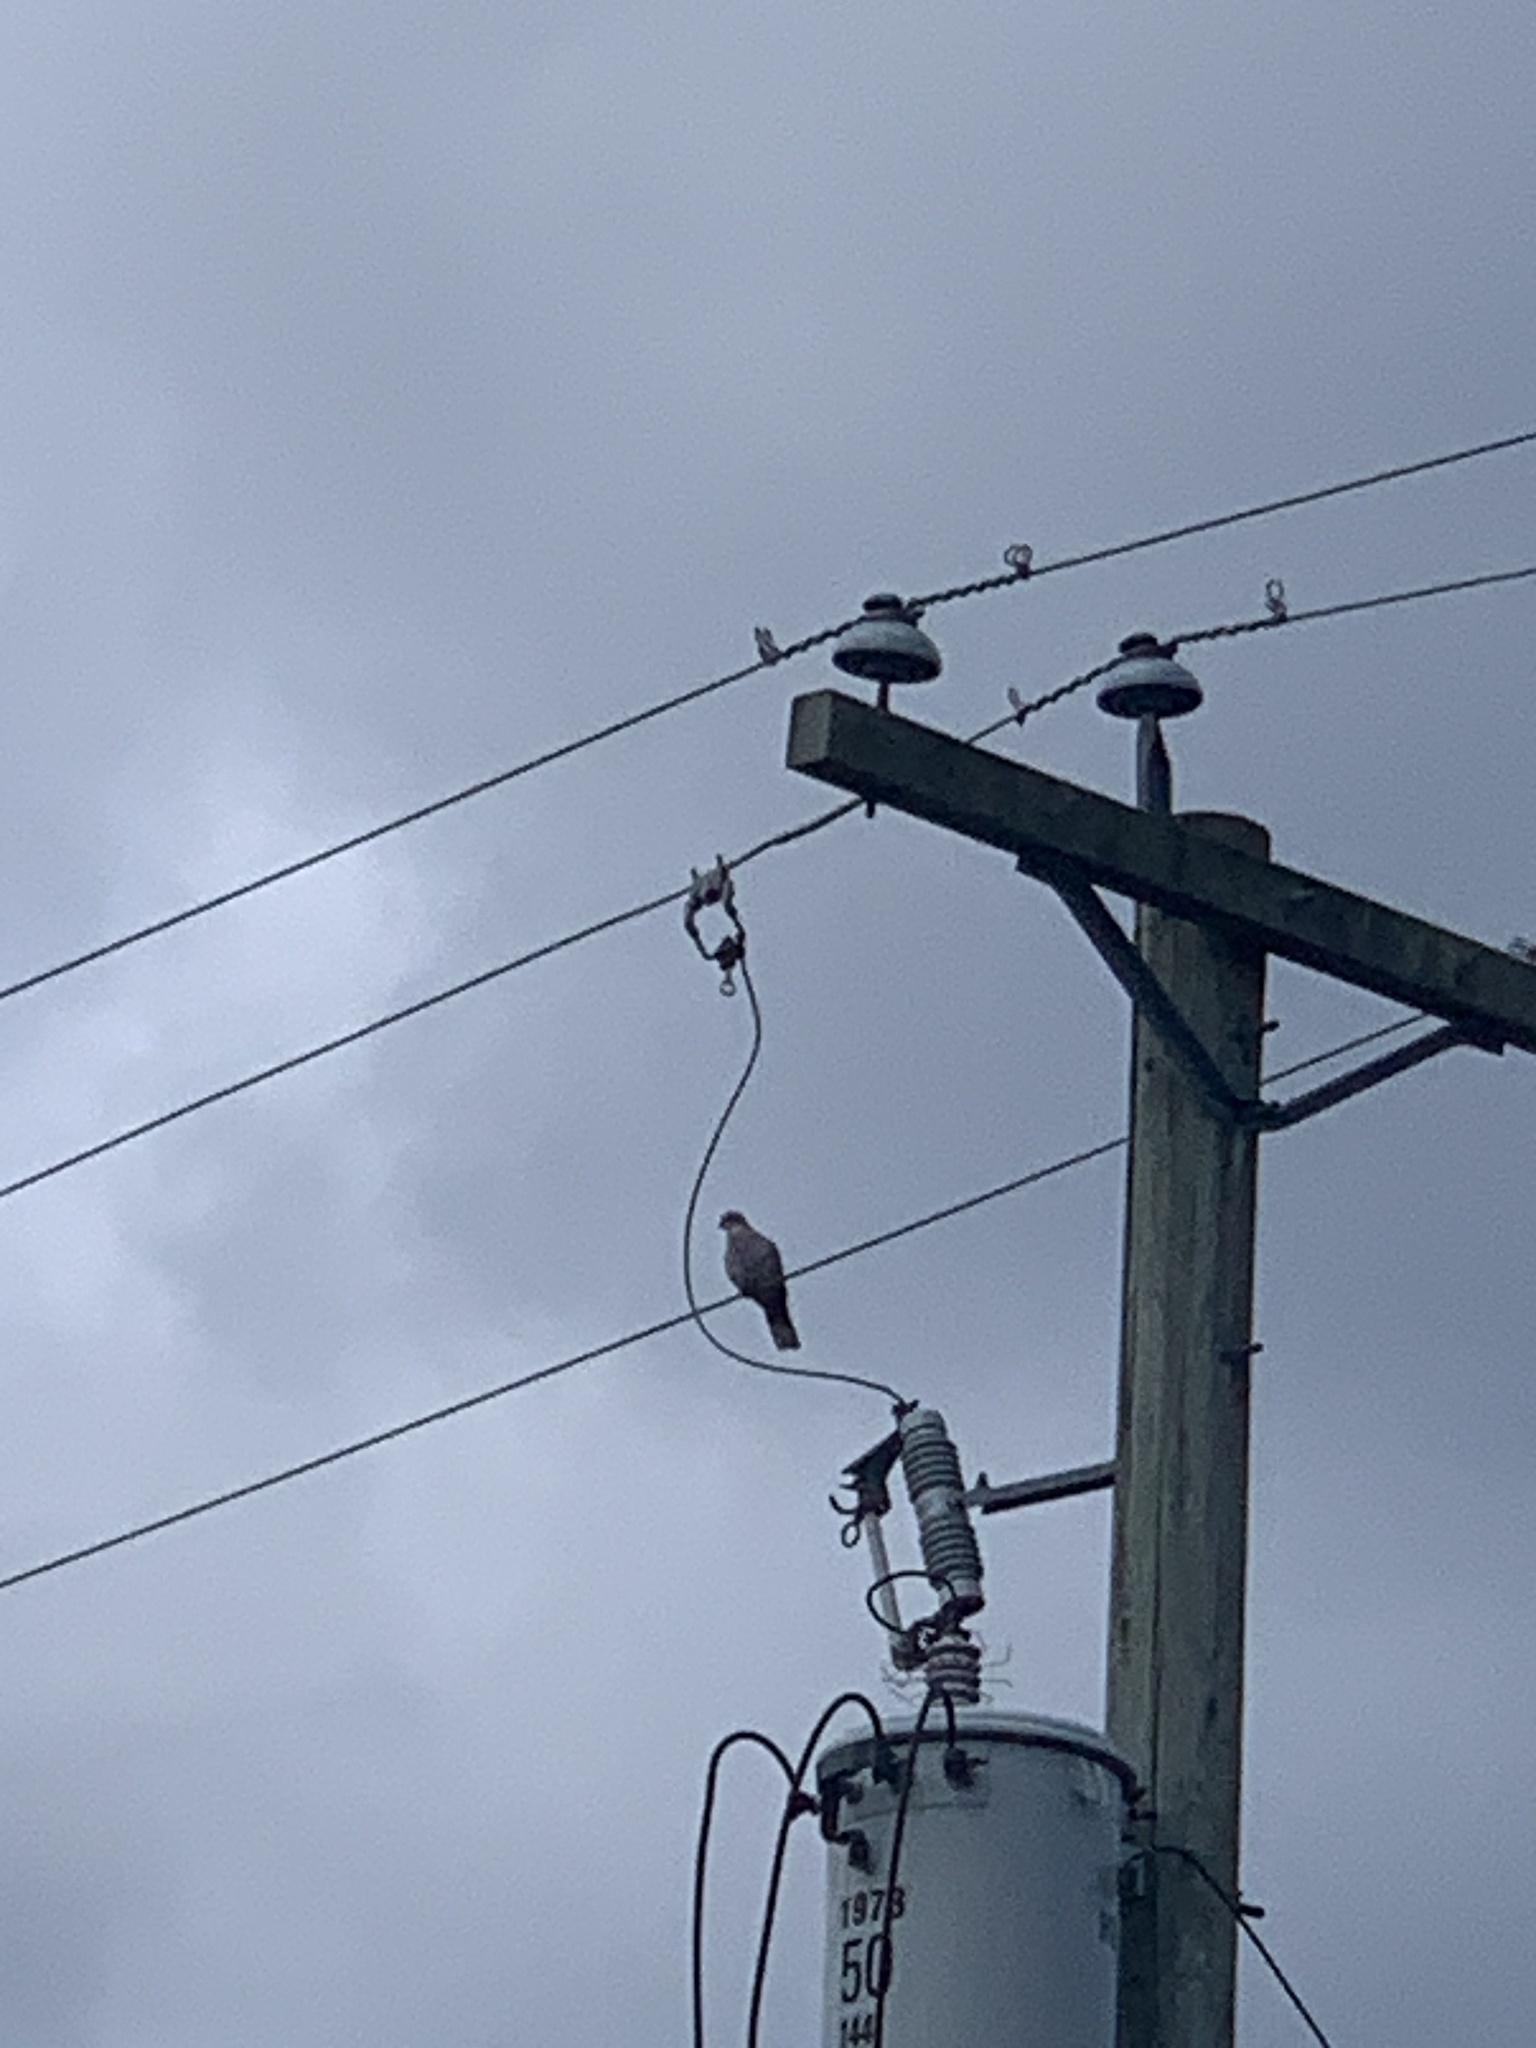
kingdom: Animalia
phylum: Chordata
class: Aves
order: Columbiformes
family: Columbidae
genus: Streptopelia
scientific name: Streptopelia decaocto
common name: Eurasian collared dove
